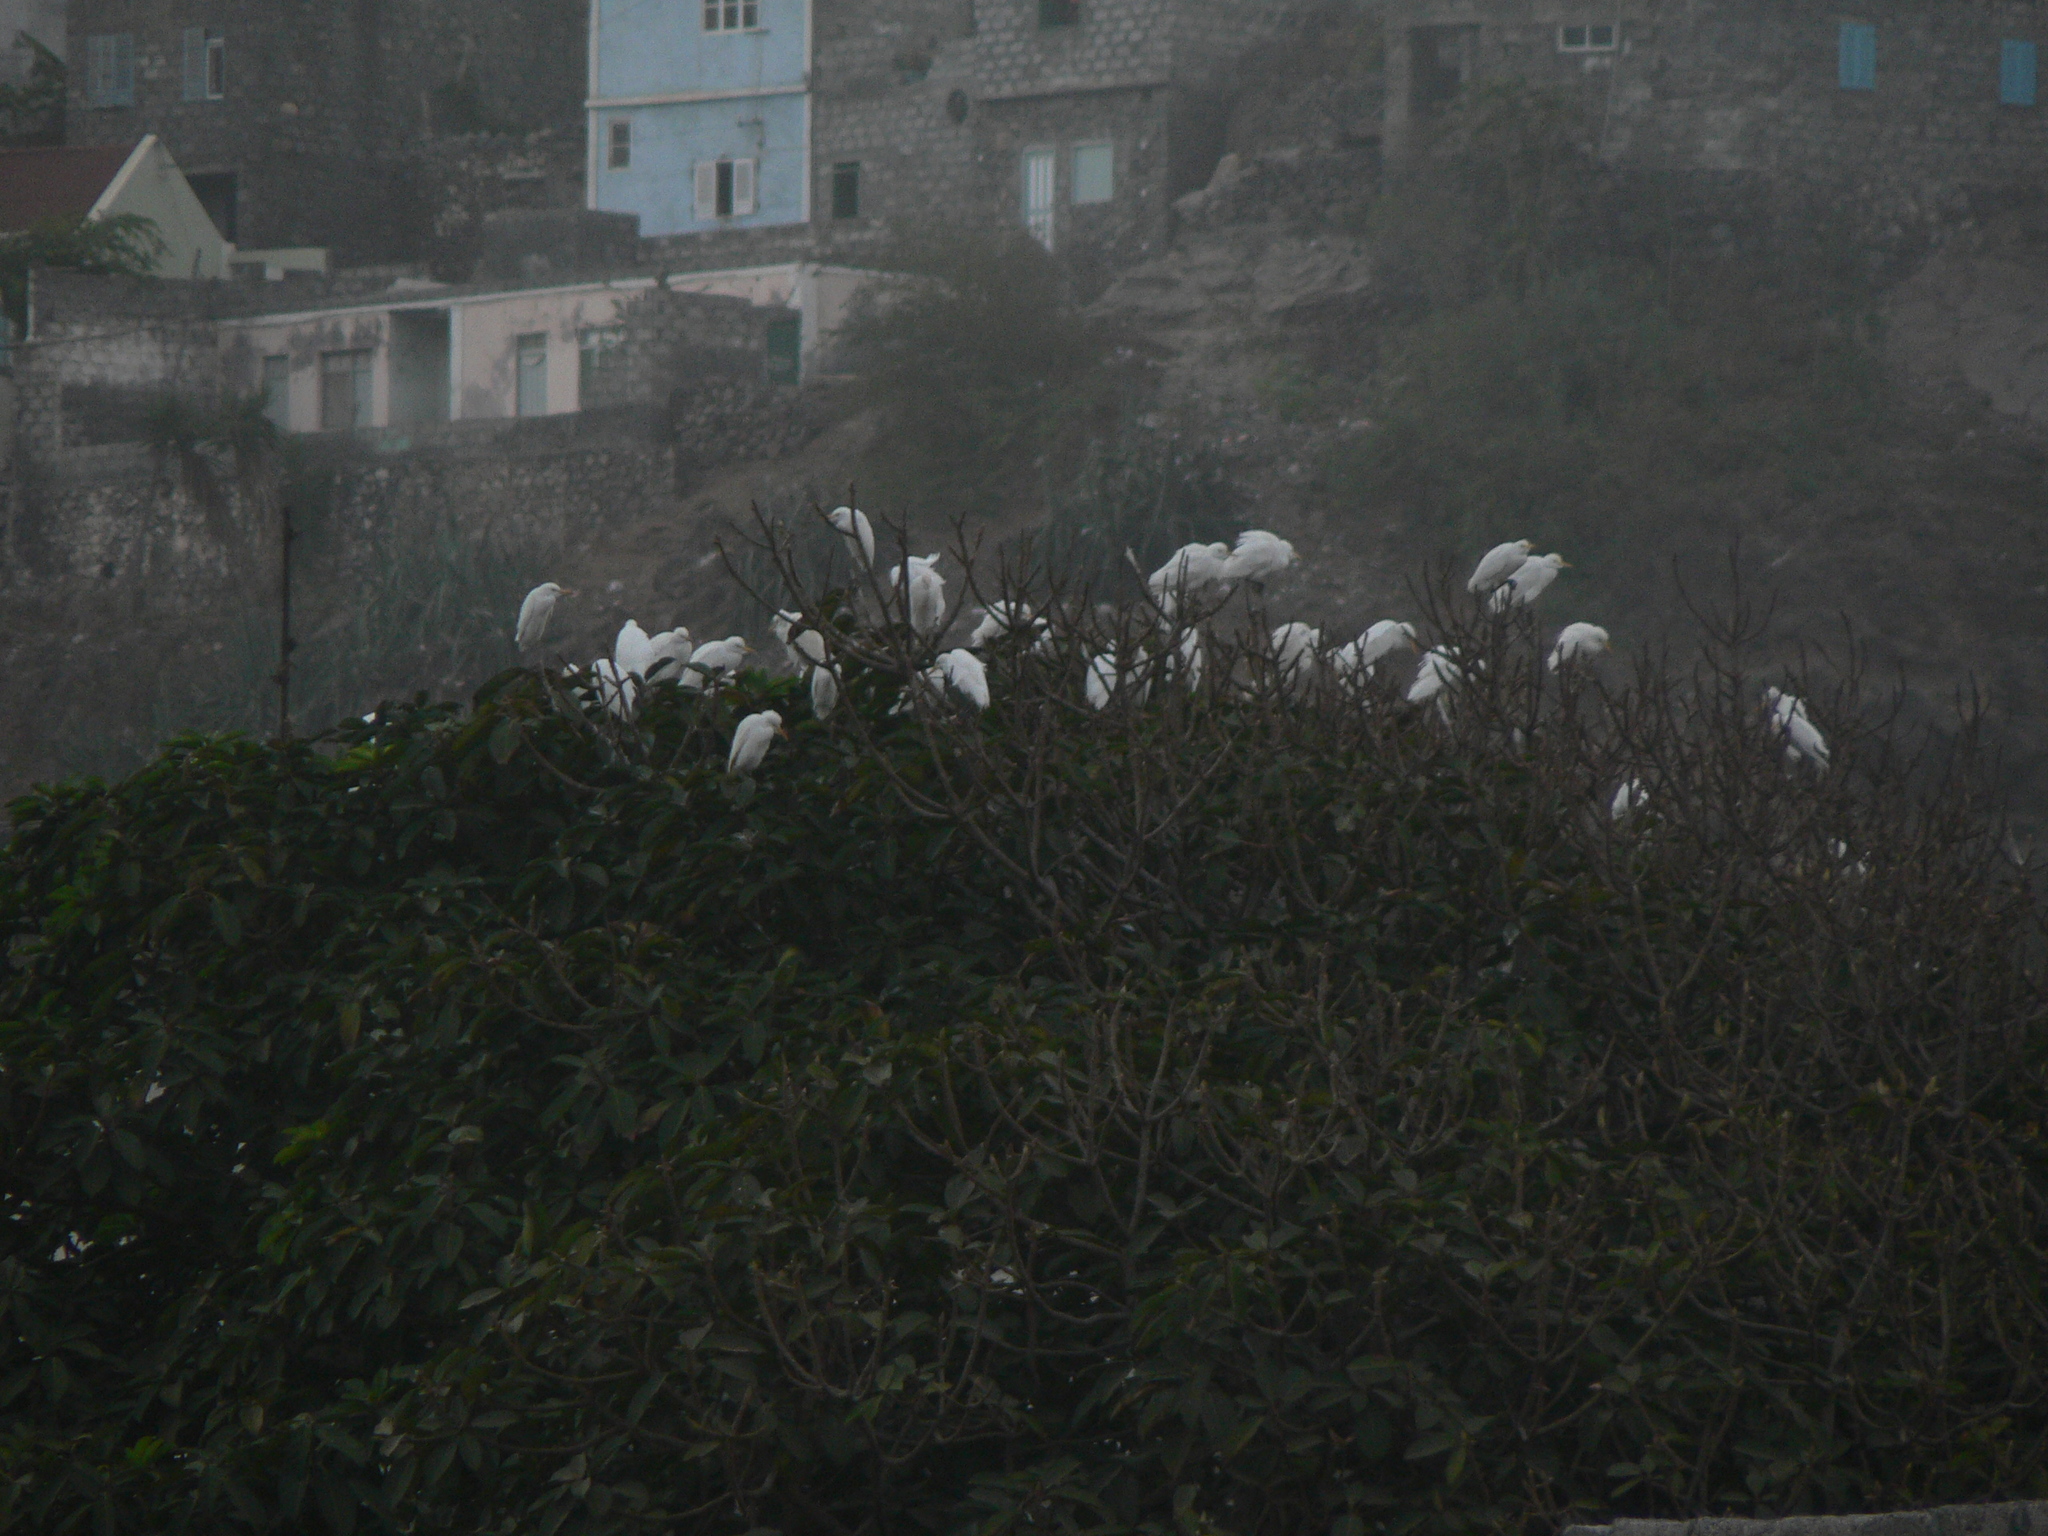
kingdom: Animalia
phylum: Chordata
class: Aves
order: Pelecaniformes
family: Ardeidae
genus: Bubulcus
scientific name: Bubulcus ibis
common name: Cattle egret
